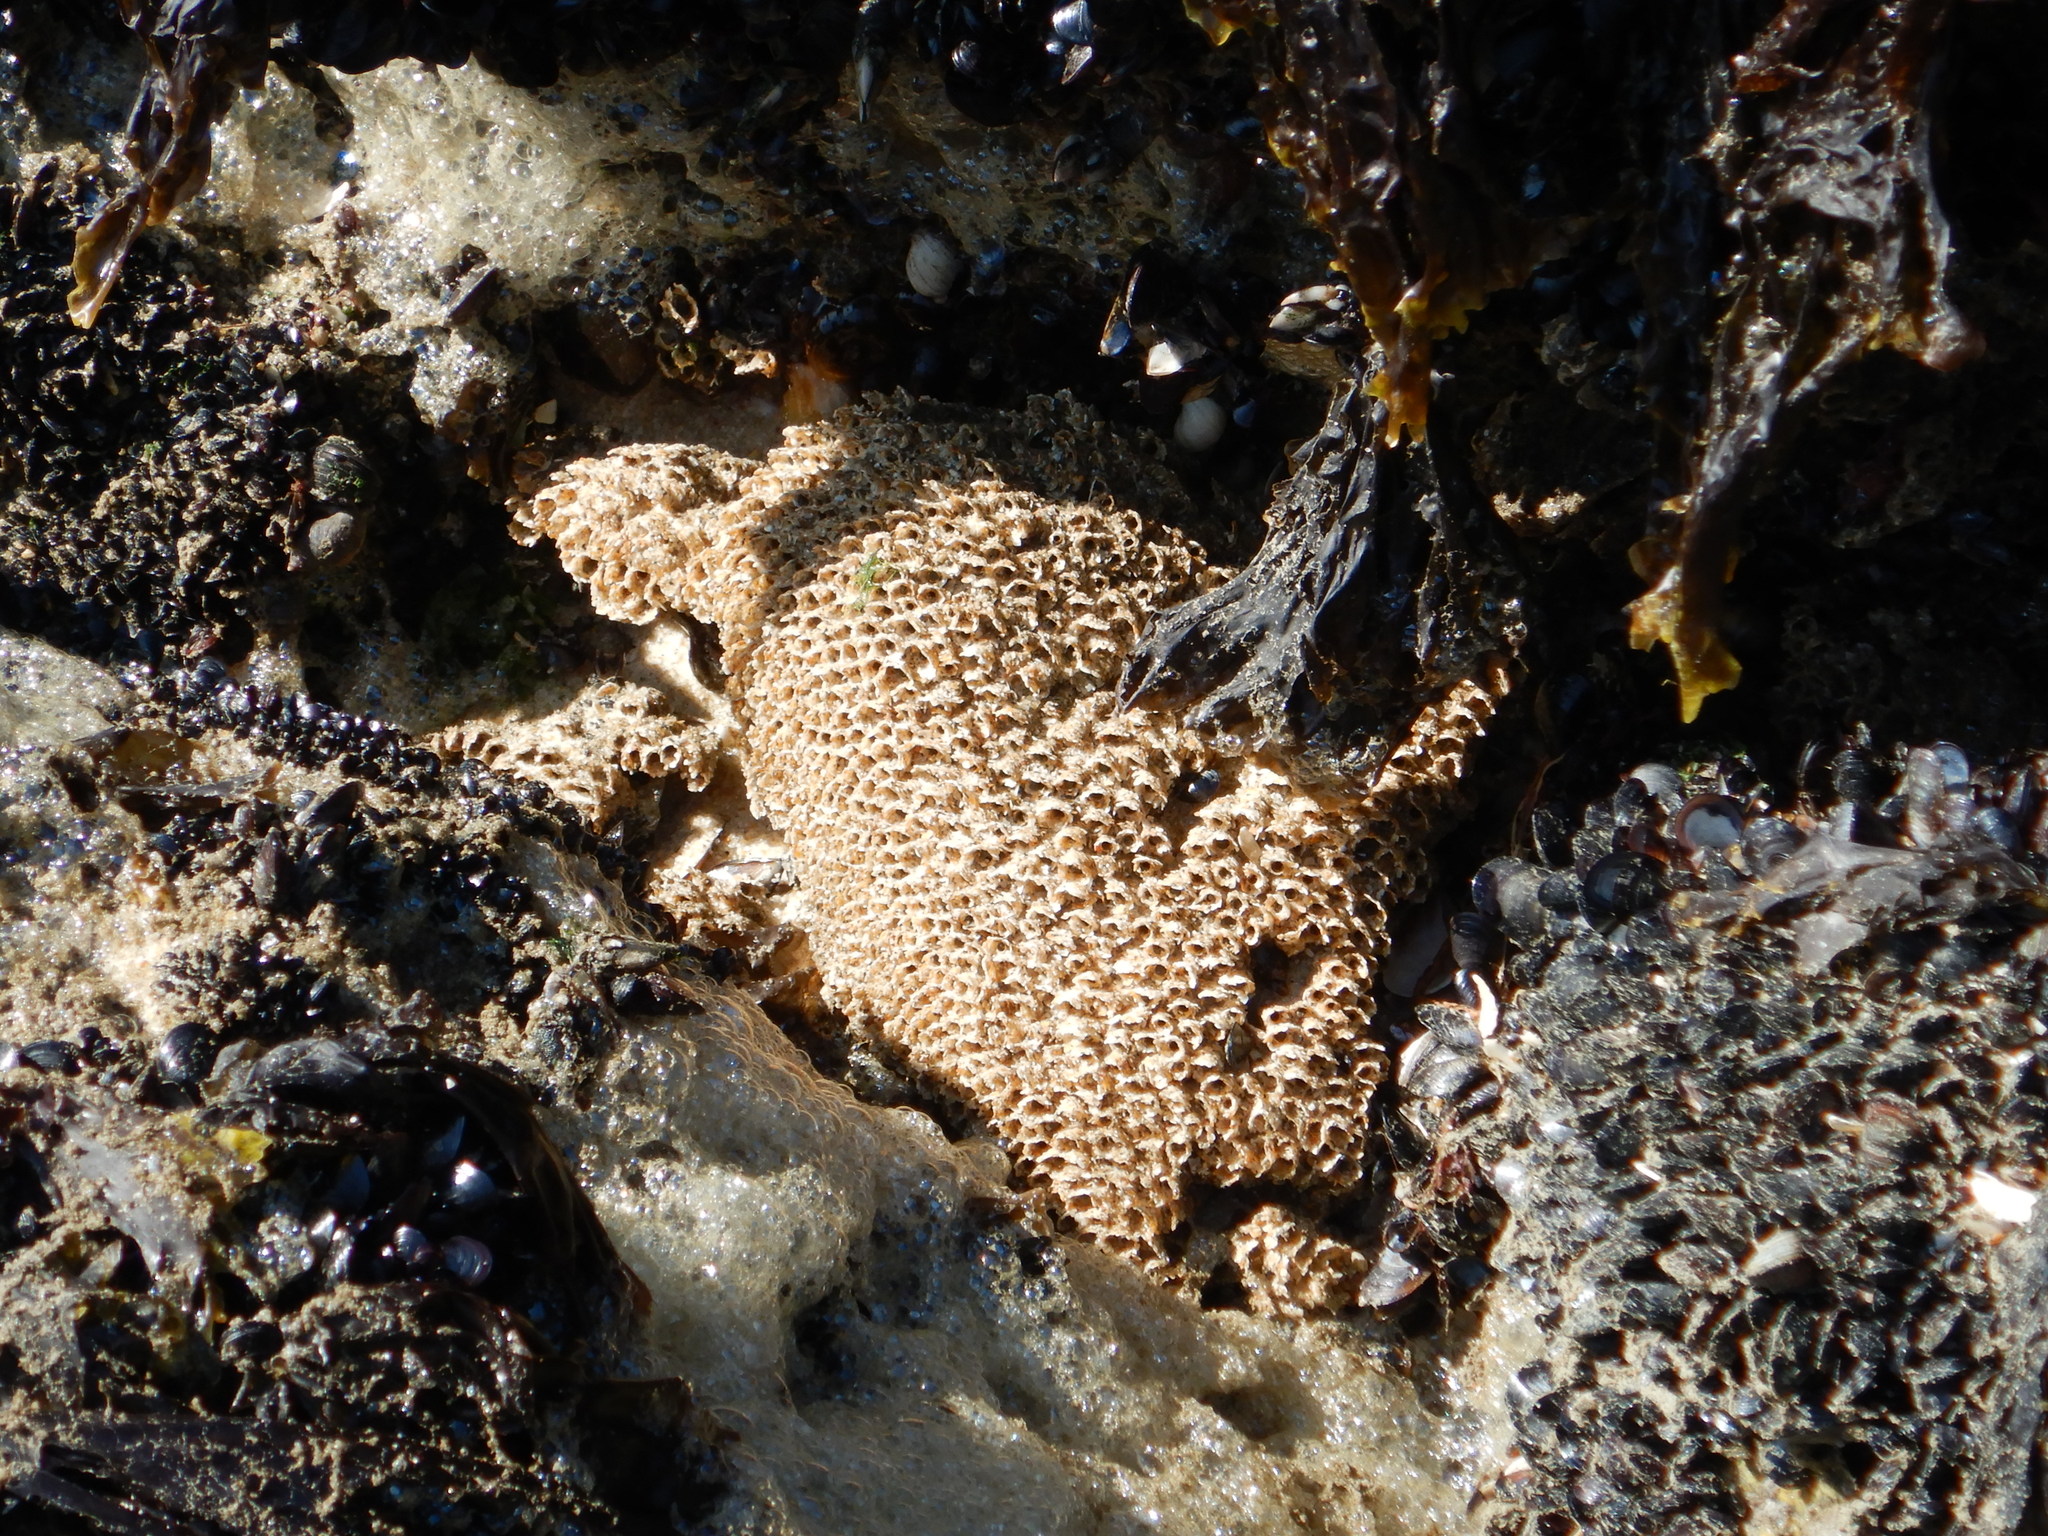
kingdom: Animalia
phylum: Annelida
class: Polychaeta
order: Sabellida
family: Sabellariidae
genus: Sabellaria
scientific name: Sabellaria alveolata
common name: Honeycomb worm
